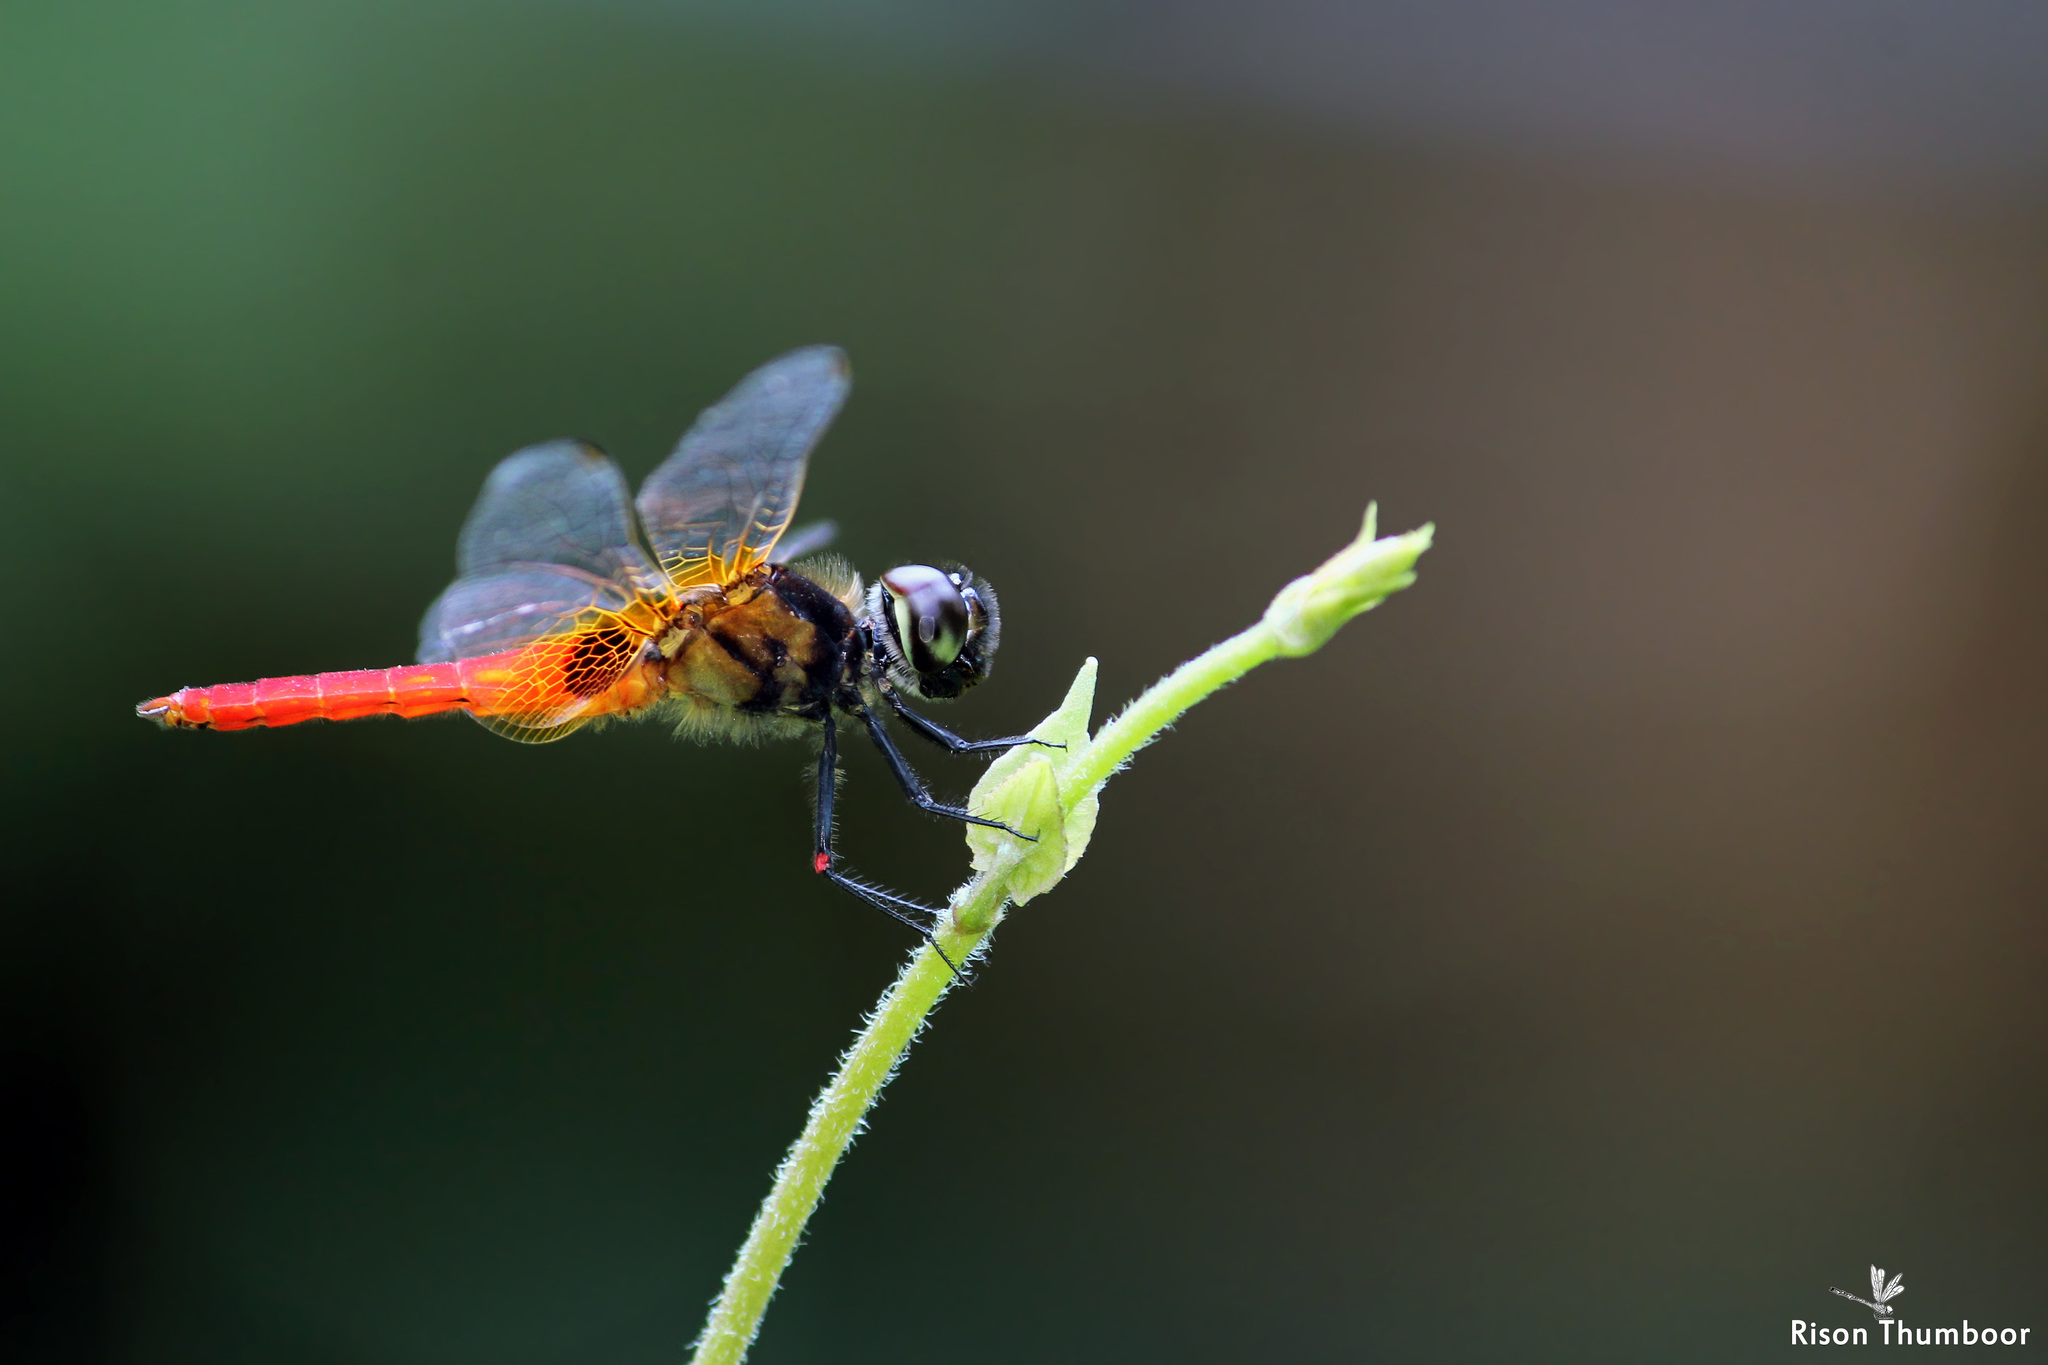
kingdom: Animalia
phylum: Arthropoda
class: Insecta
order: Odonata
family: Libellulidae
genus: Aethriamanta
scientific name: Aethriamanta brevipennis
